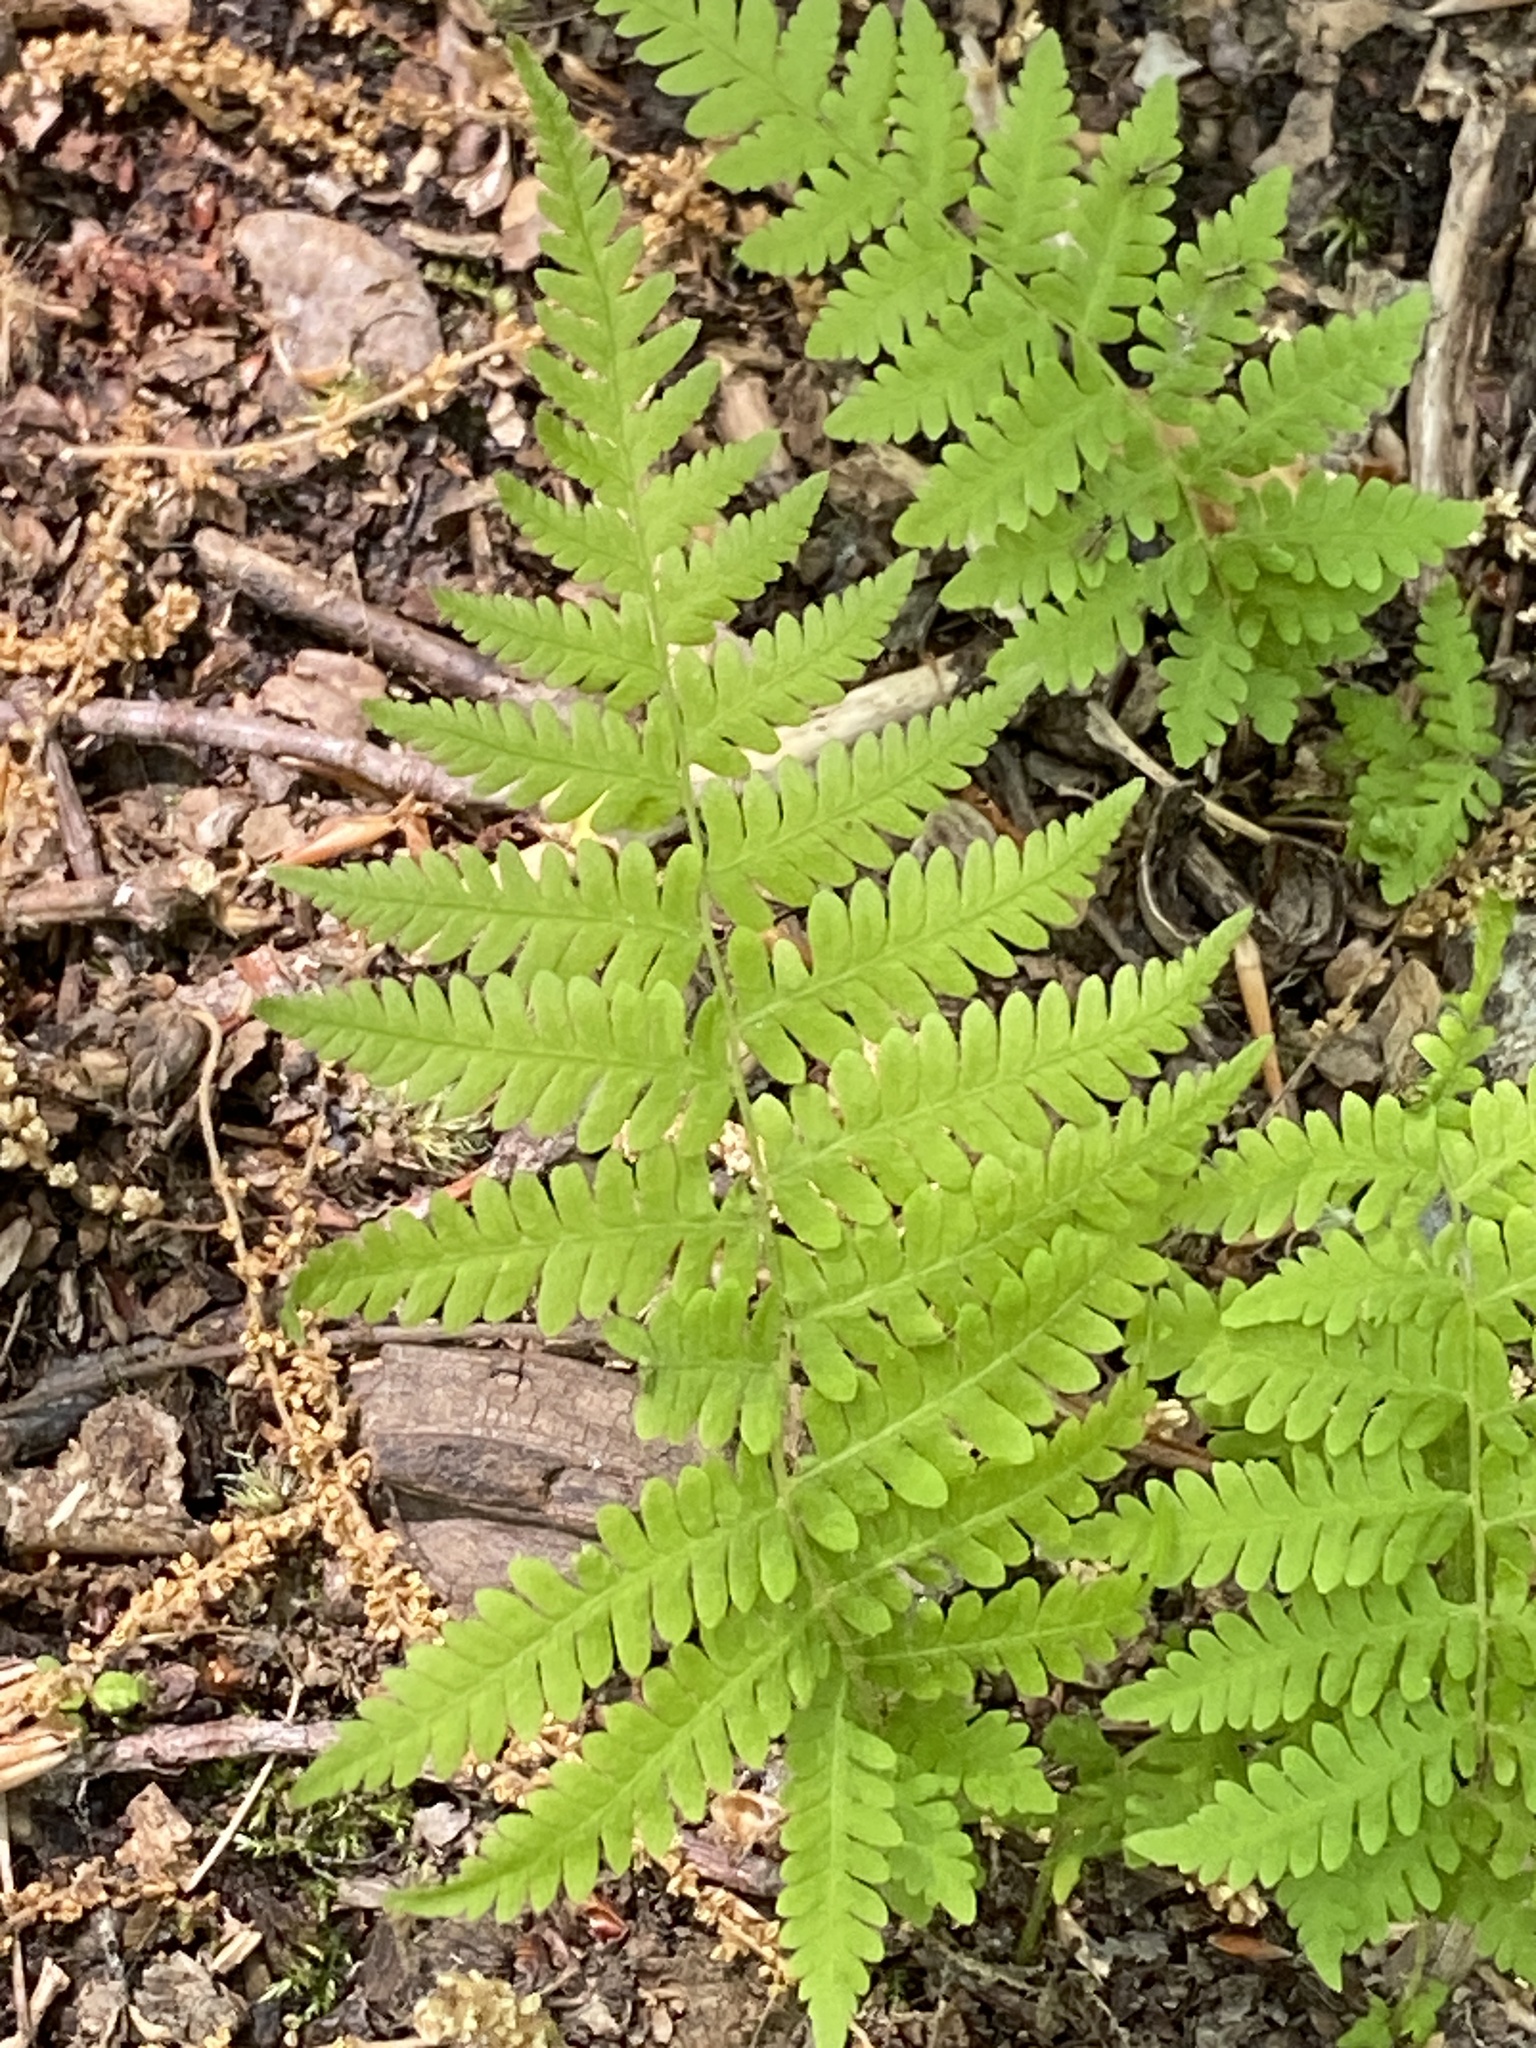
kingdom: Plantae
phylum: Tracheophyta
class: Polypodiopsida
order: Polypodiales
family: Thelypteridaceae
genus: Amauropelta
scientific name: Amauropelta noveboracensis
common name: New york fern
